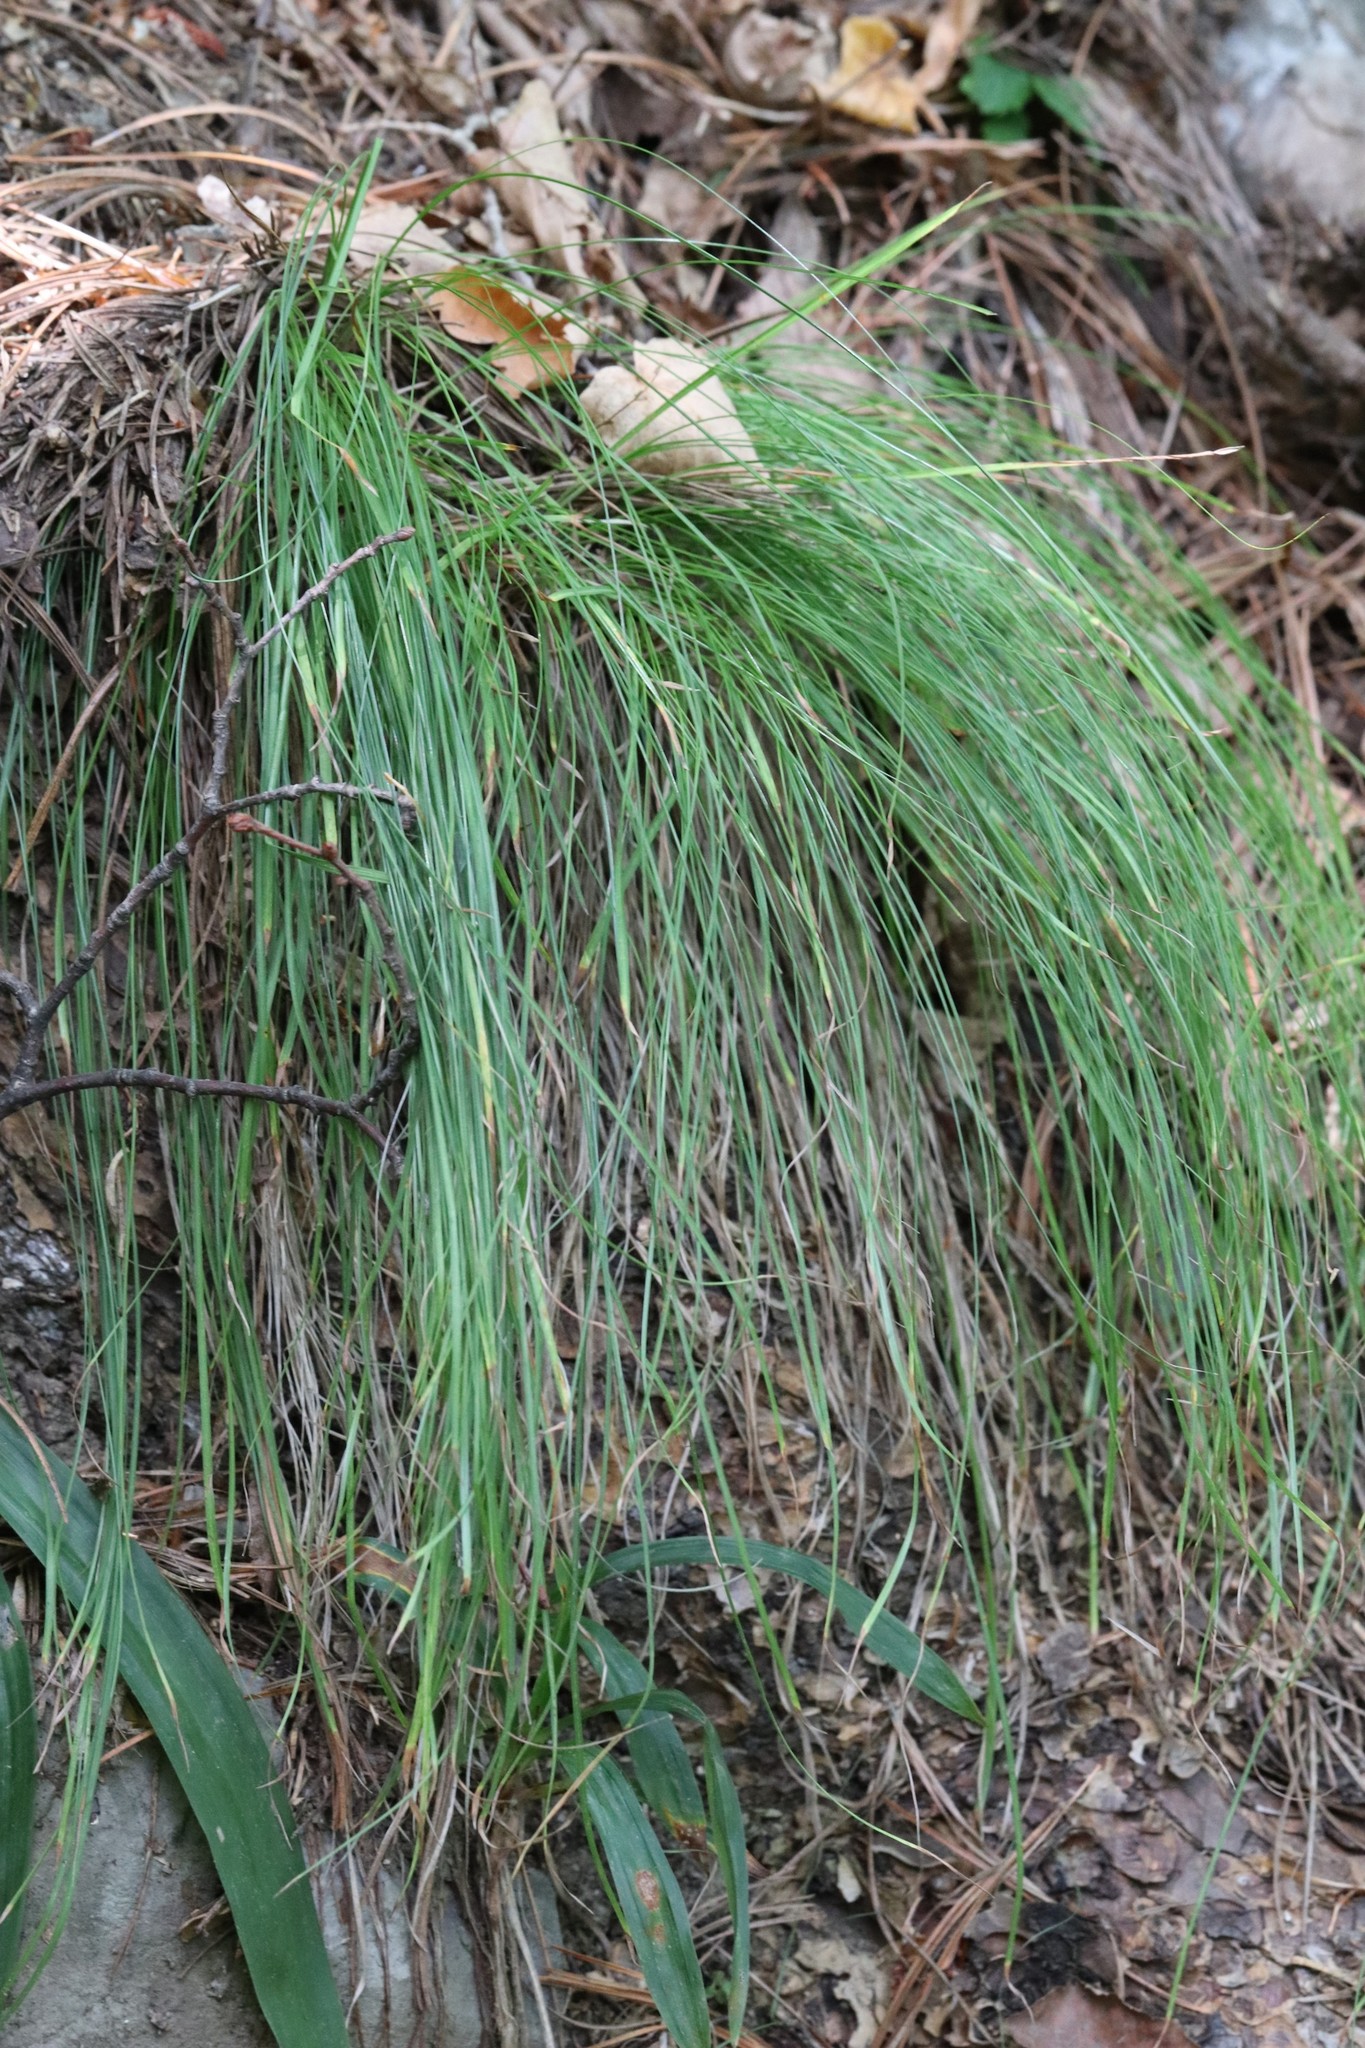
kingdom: Plantae
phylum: Tracheophyta
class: Liliopsida
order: Poales
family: Cyperaceae
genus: Carex
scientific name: Carex callitrichos
